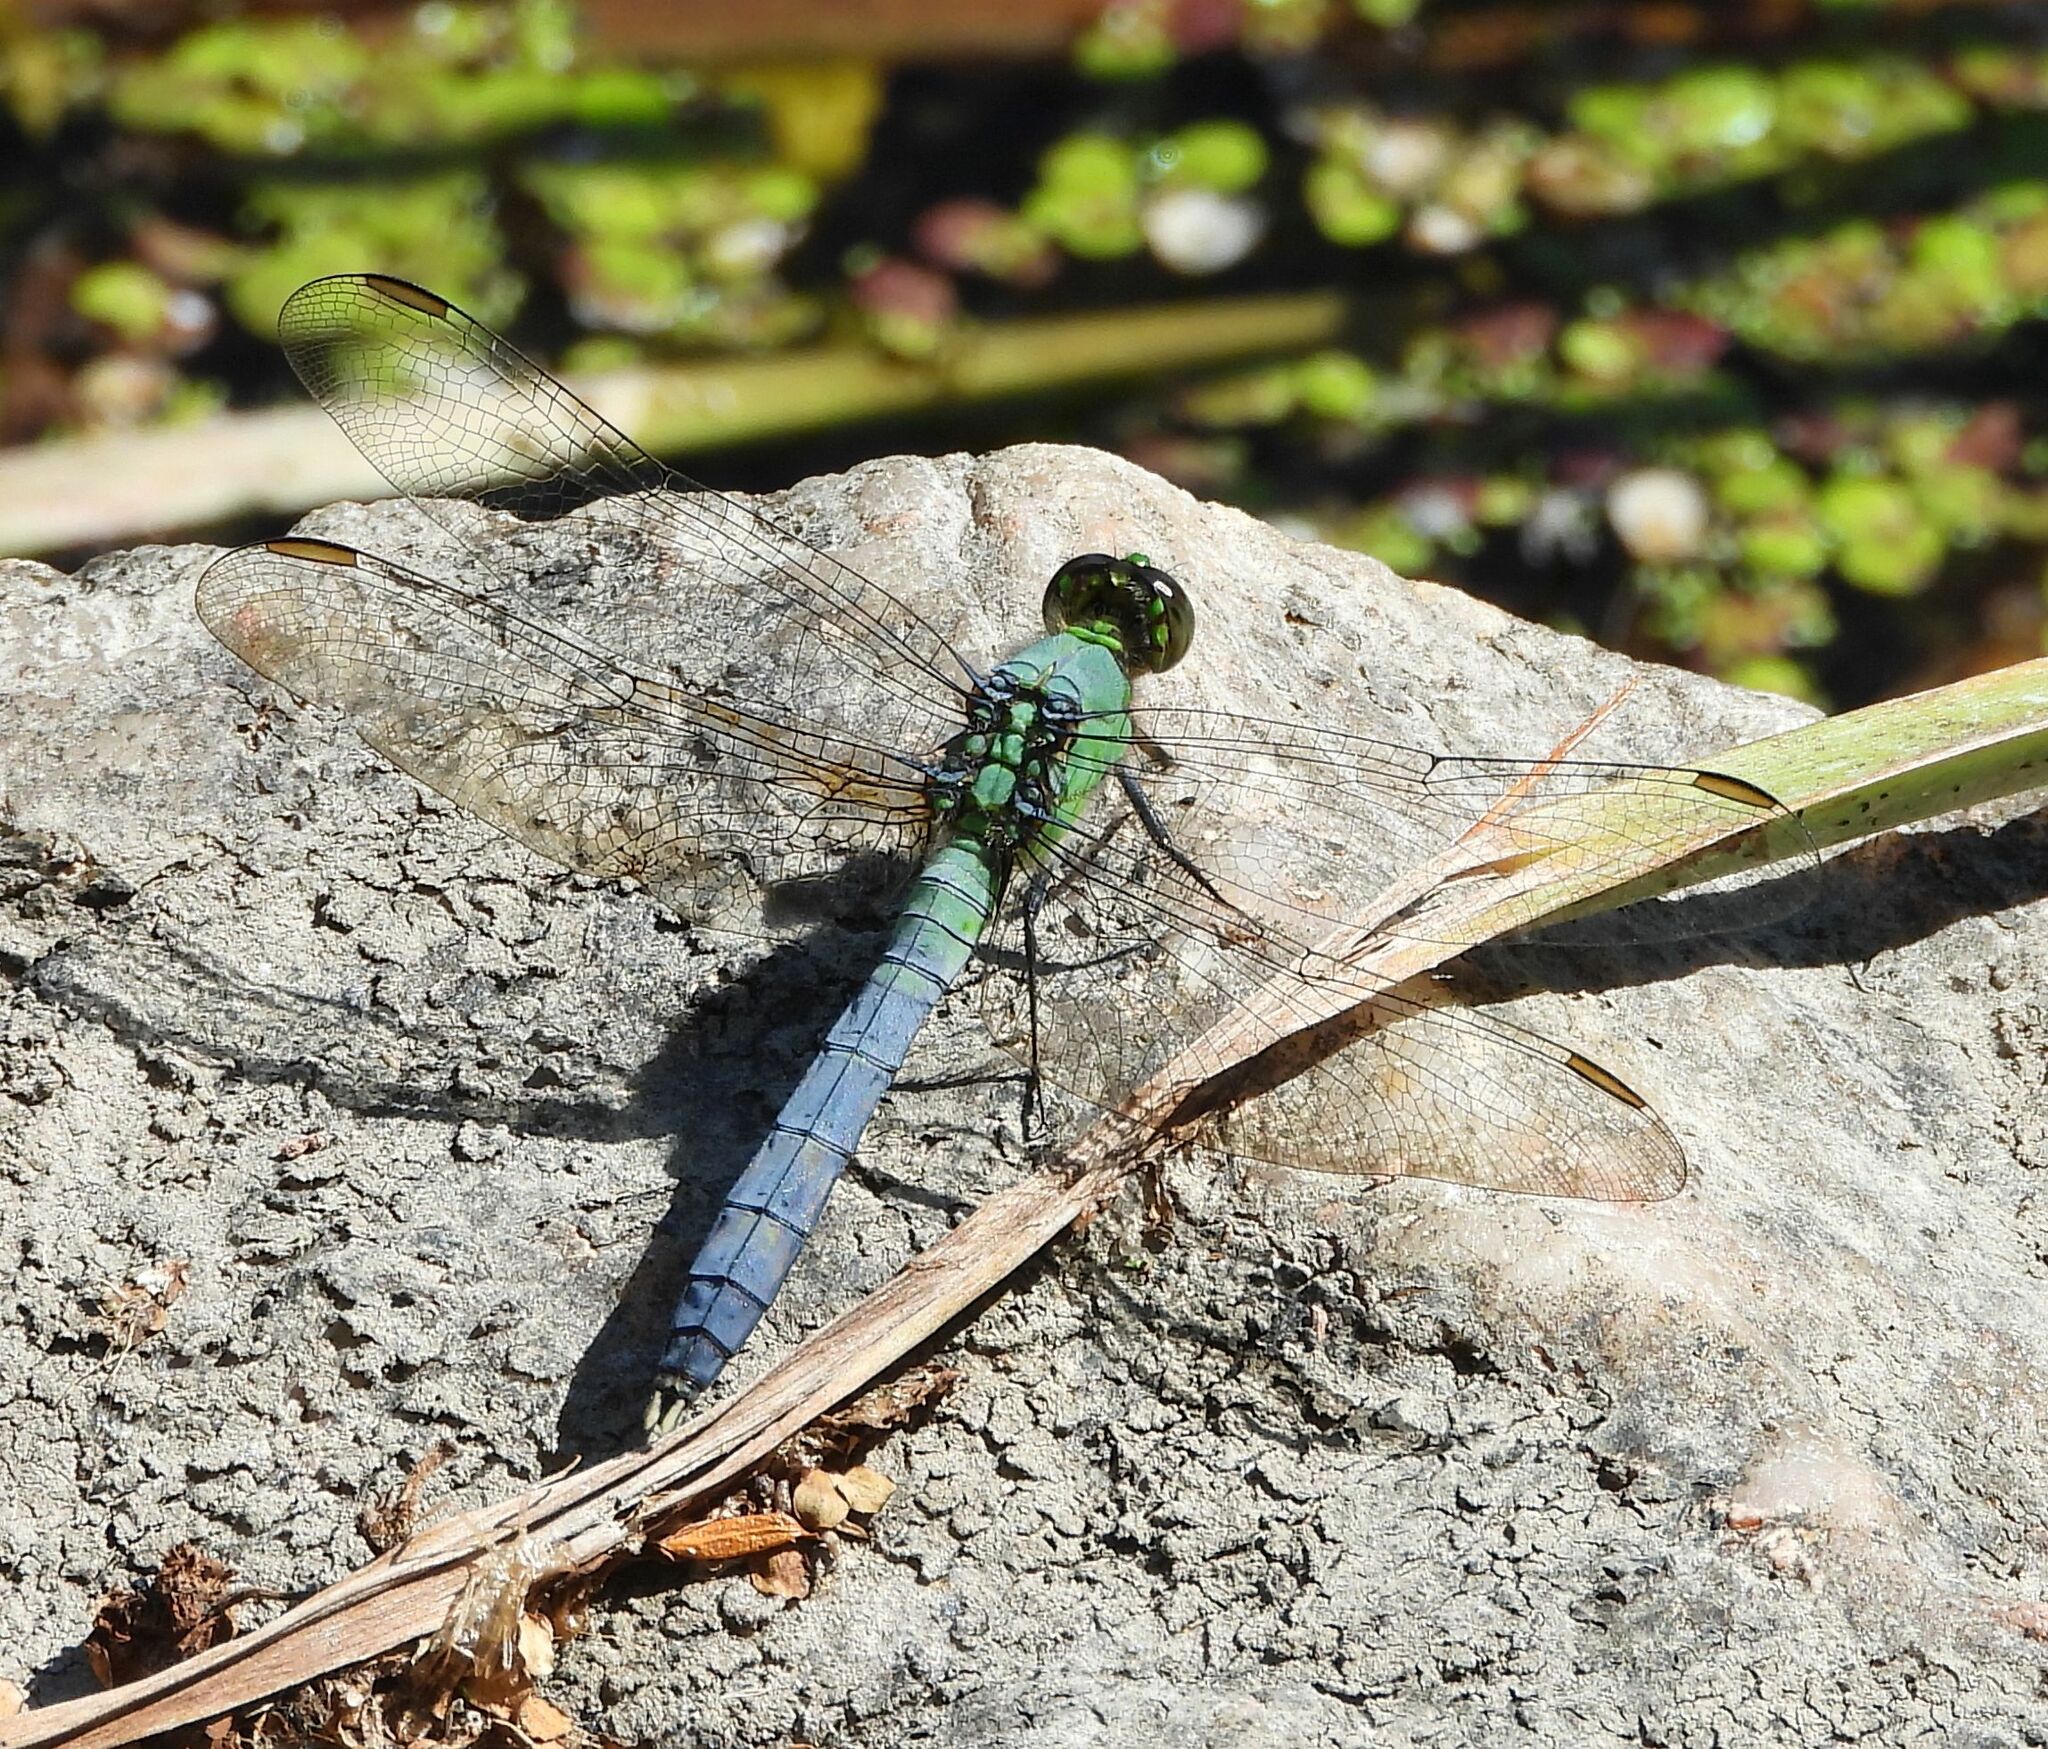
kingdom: Animalia
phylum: Arthropoda
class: Insecta
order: Odonata
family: Libellulidae
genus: Erythemis
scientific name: Erythemis simplicicollis
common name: Eastern pondhawk
